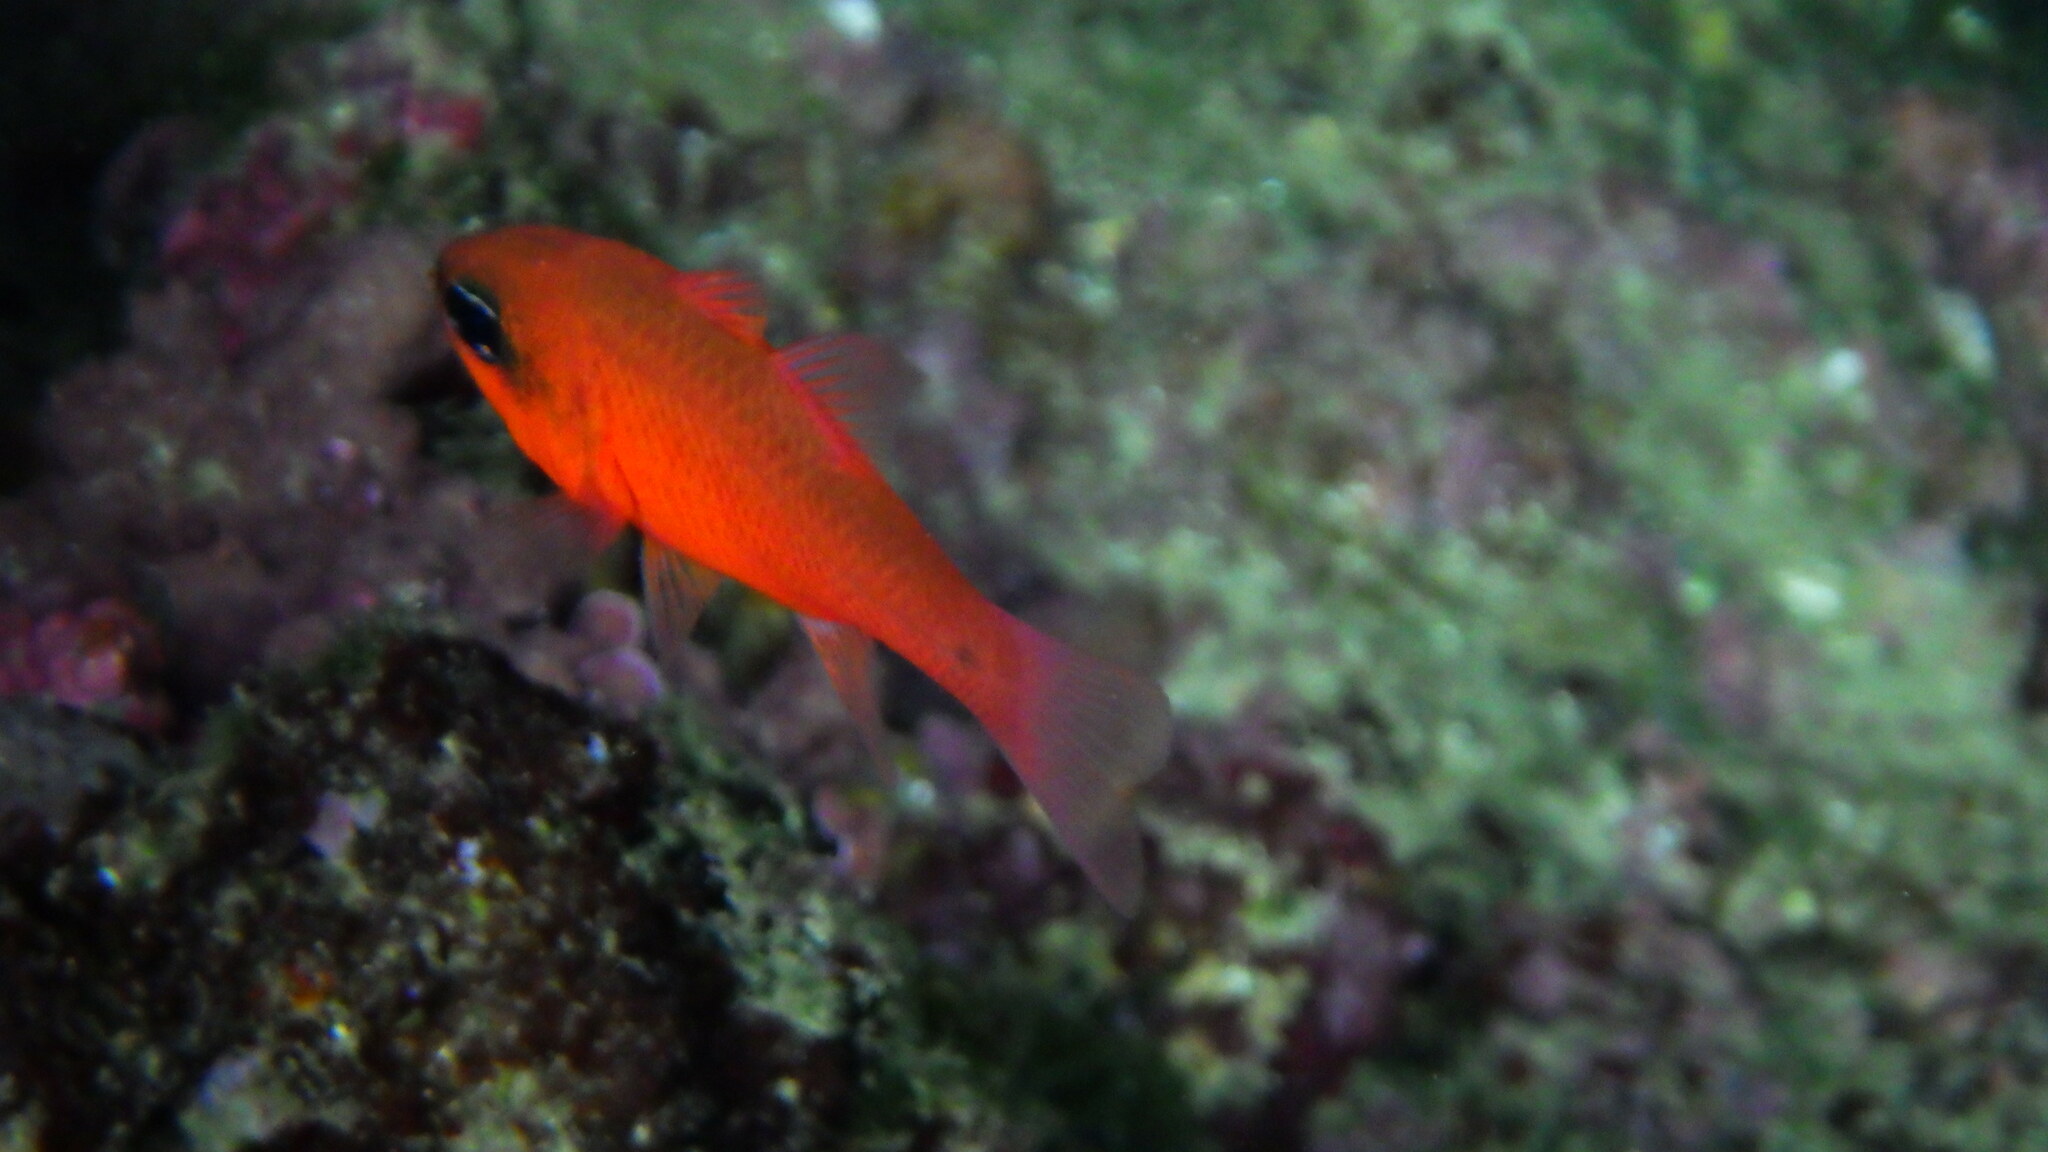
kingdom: Animalia
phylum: Chordata
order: Perciformes
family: Apogonidae
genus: Apogon
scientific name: Apogon imberbis
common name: Cardinal fish
